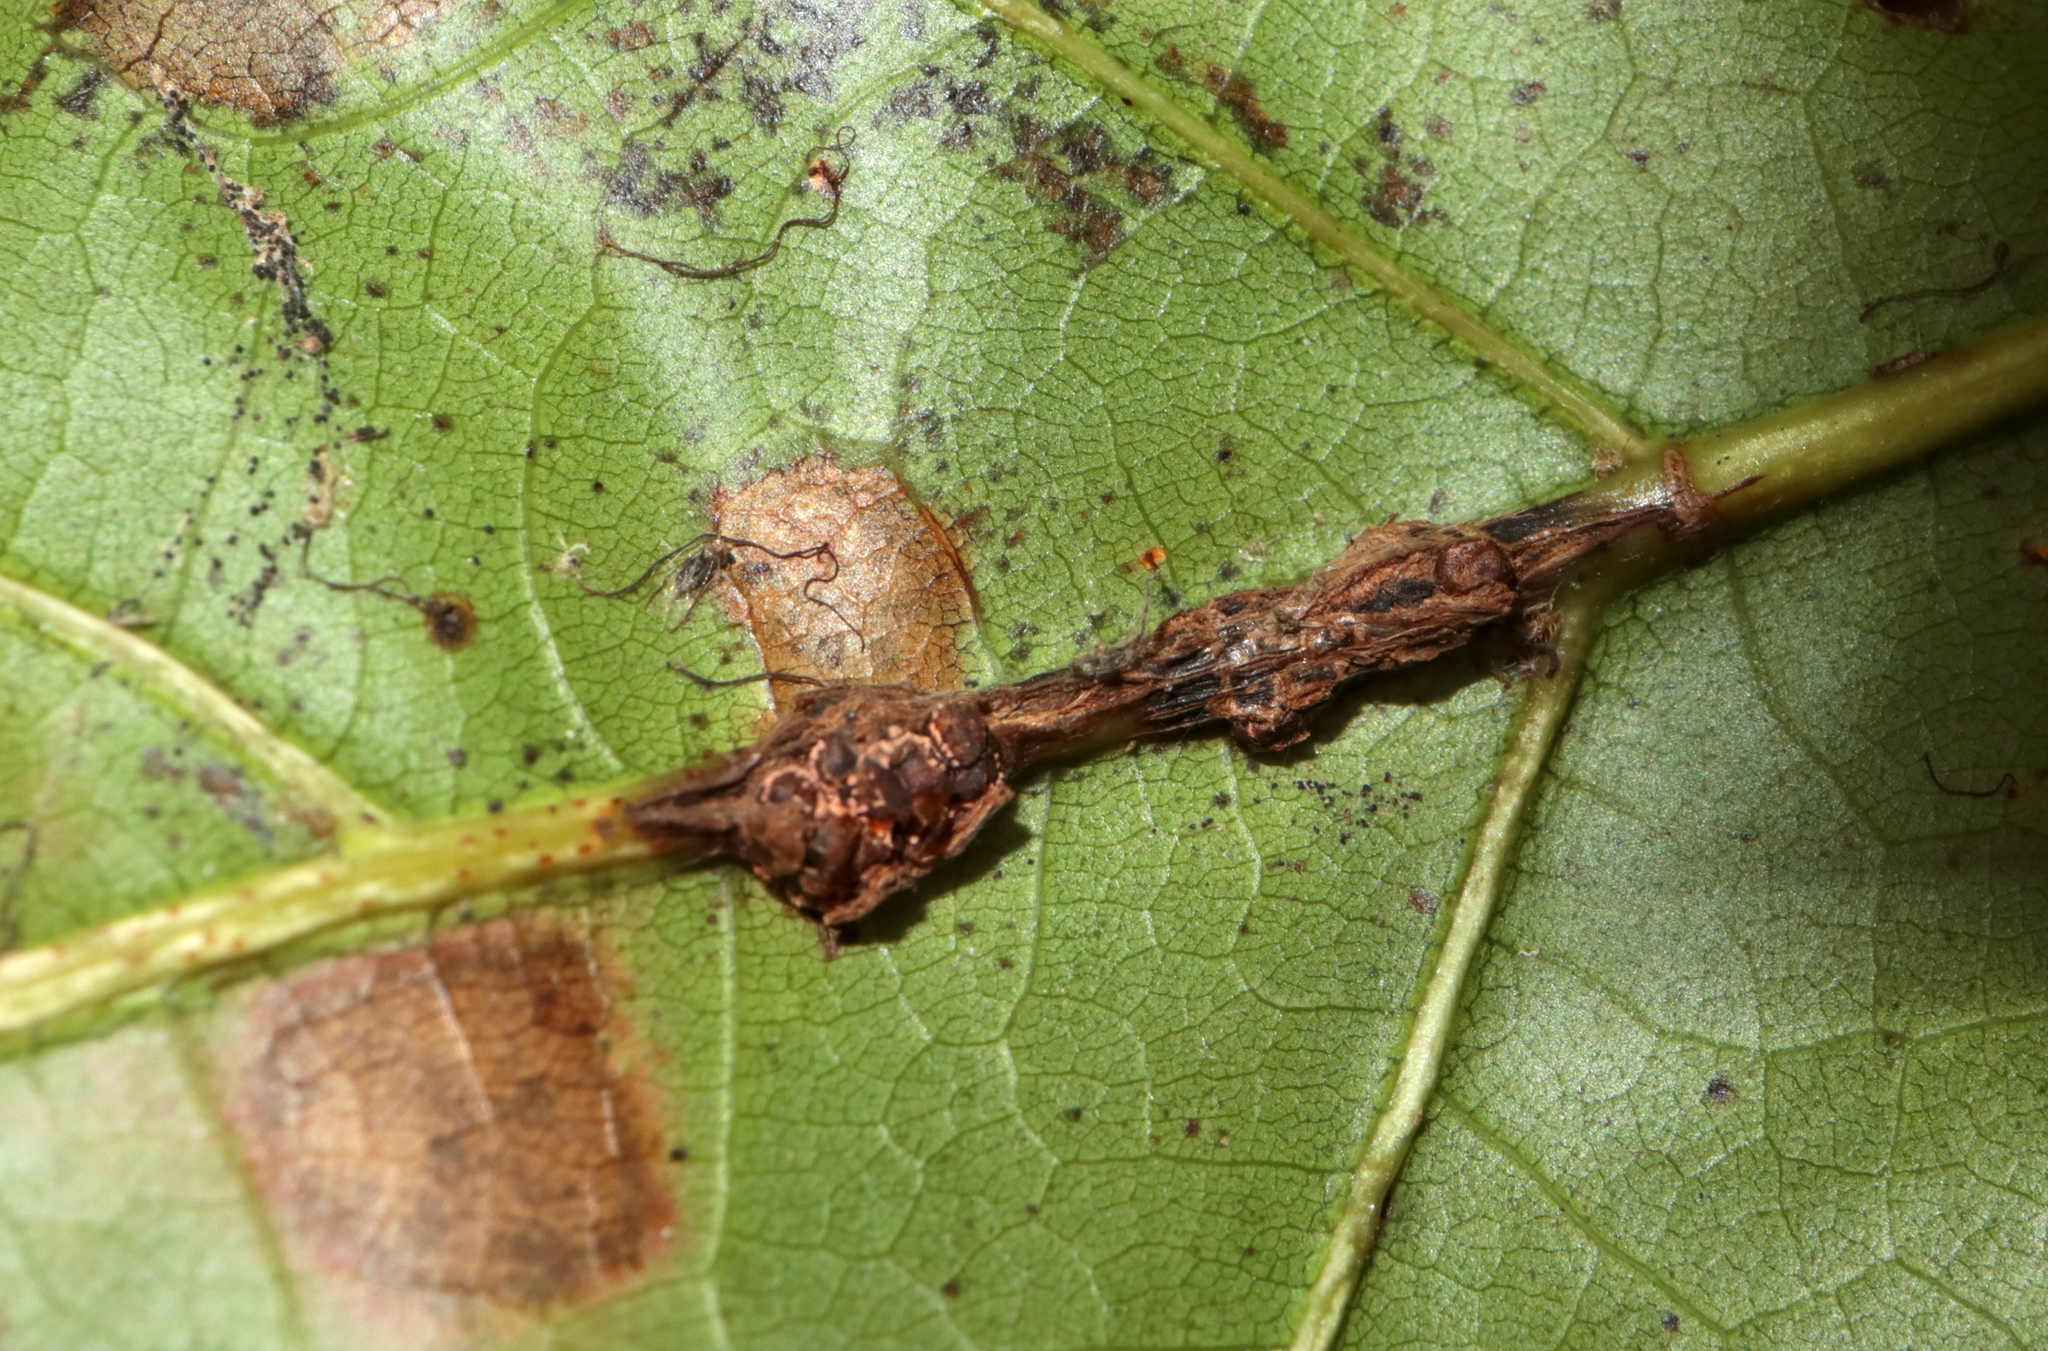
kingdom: Animalia
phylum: Arthropoda
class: Insecta
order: Hymenoptera
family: Cynipidae
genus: Kokkocynips
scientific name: Kokkocynips decidua
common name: Oak wheat gall
